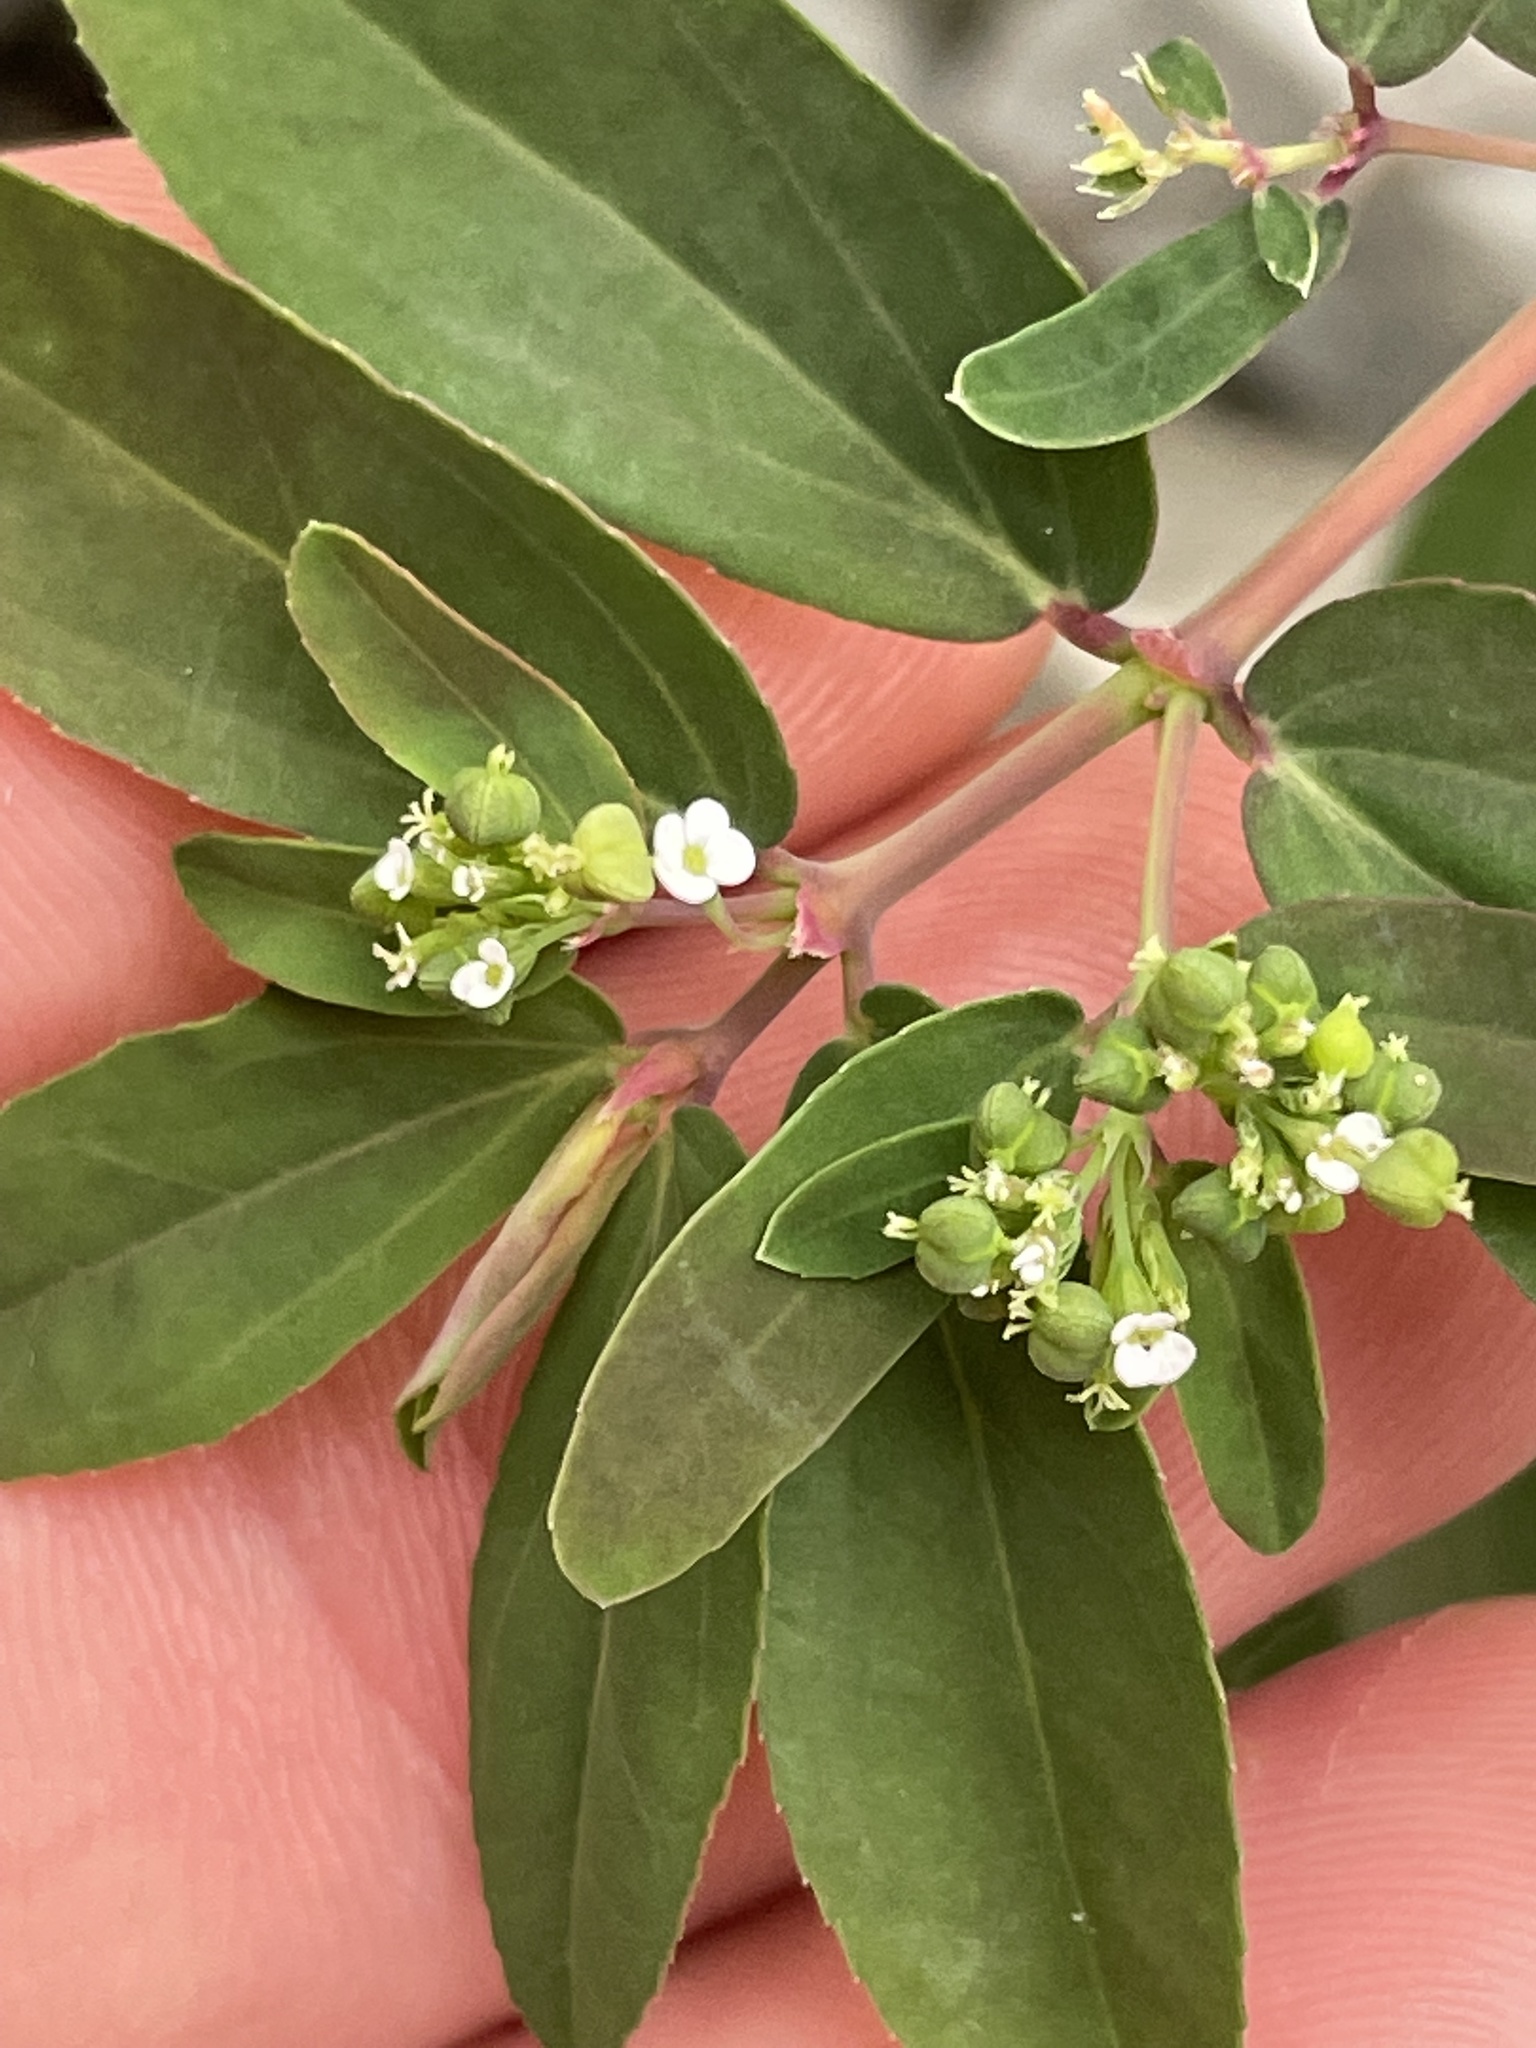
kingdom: Plantae
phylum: Tracheophyta
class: Magnoliopsida
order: Malpighiales
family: Euphorbiaceae
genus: Euphorbia
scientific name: Euphorbia hypericifolia
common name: Graceful sandmat
